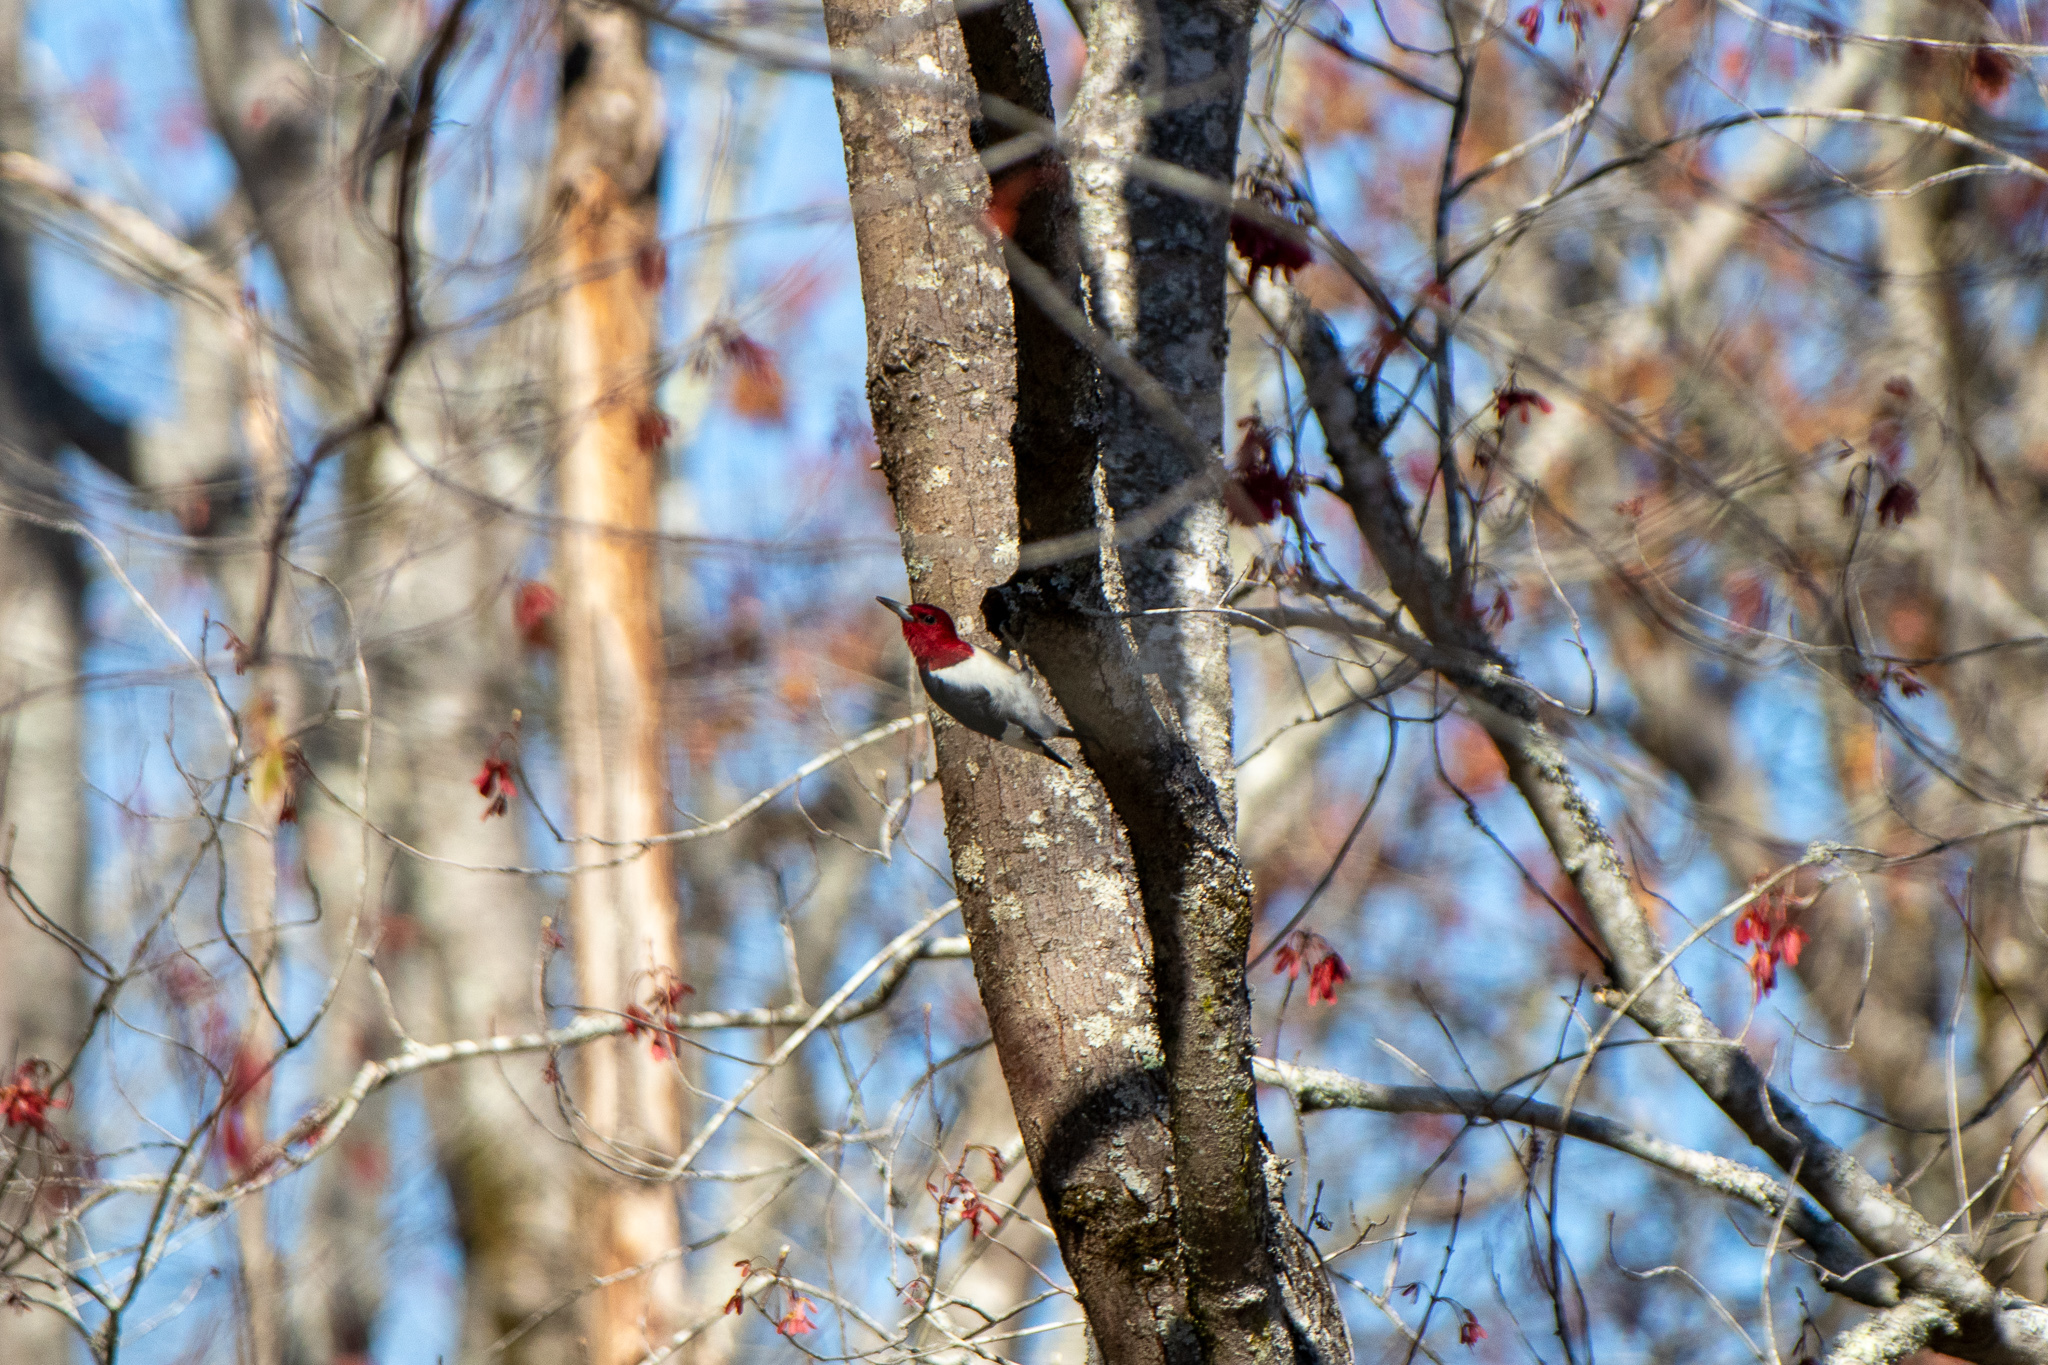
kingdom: Animalia
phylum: Chordata
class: Aves
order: Piciformes
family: Picidae
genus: Melanerpes
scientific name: Melanerpes erythrocephalus
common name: Red-headed woodpecker
